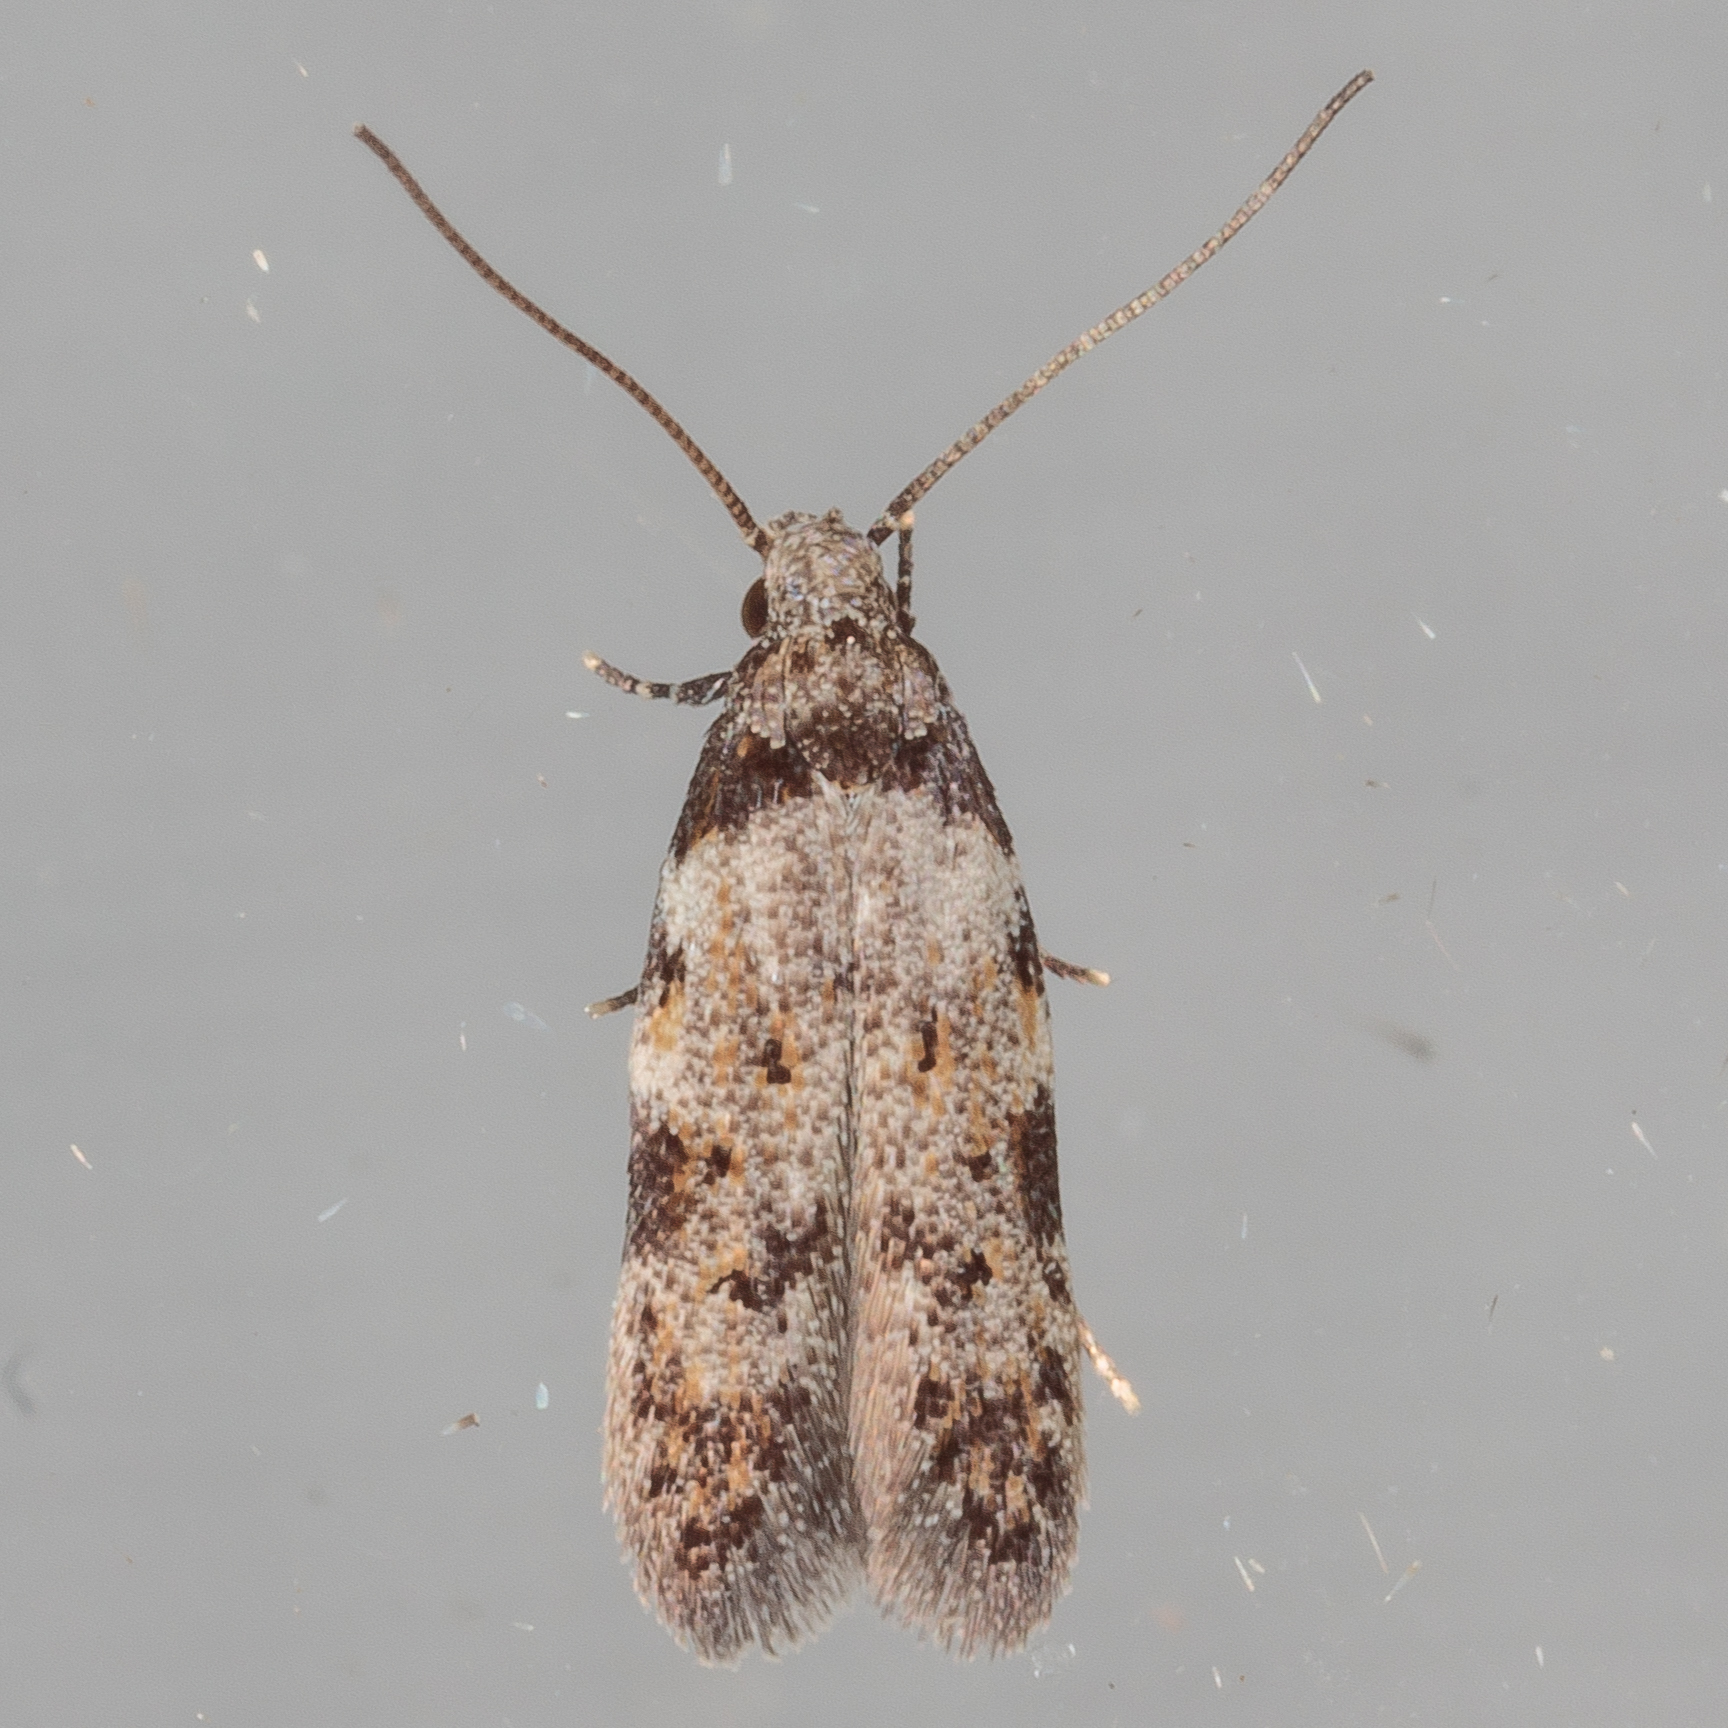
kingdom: Animalia
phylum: Arthropoda
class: Insecta
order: Lepidoptera
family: Autostichidae
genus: Taygete
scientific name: Taygete attributella
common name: Triangle-marked twirler moth
